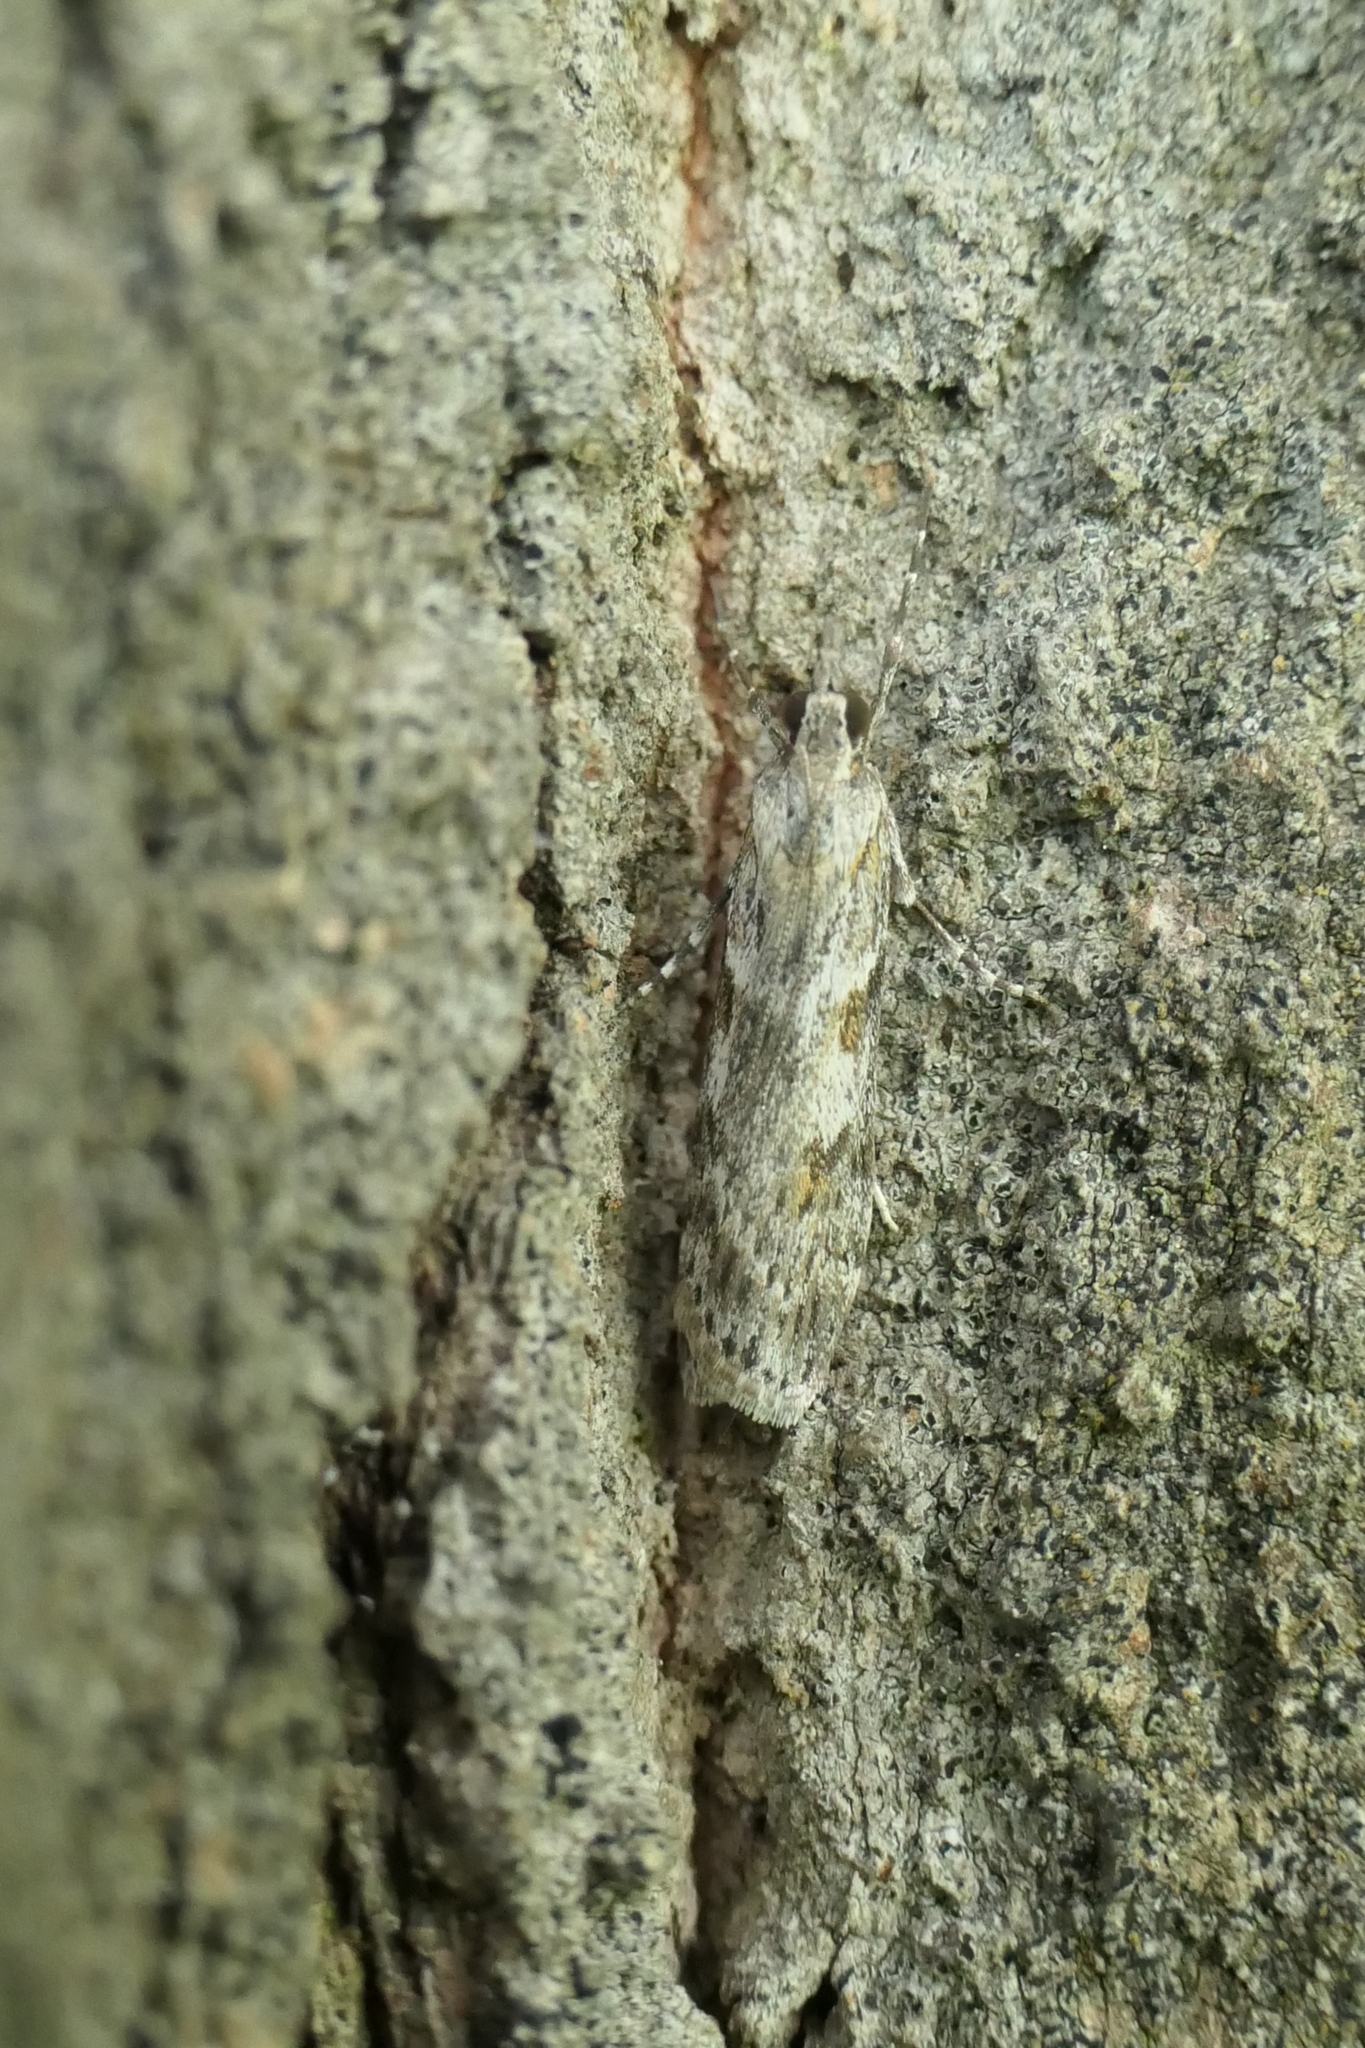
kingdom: Animalia
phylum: Arthropoda
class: Insecta
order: Lepidoptera
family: Crambidae
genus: Scoparia
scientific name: Scoparia halopis
